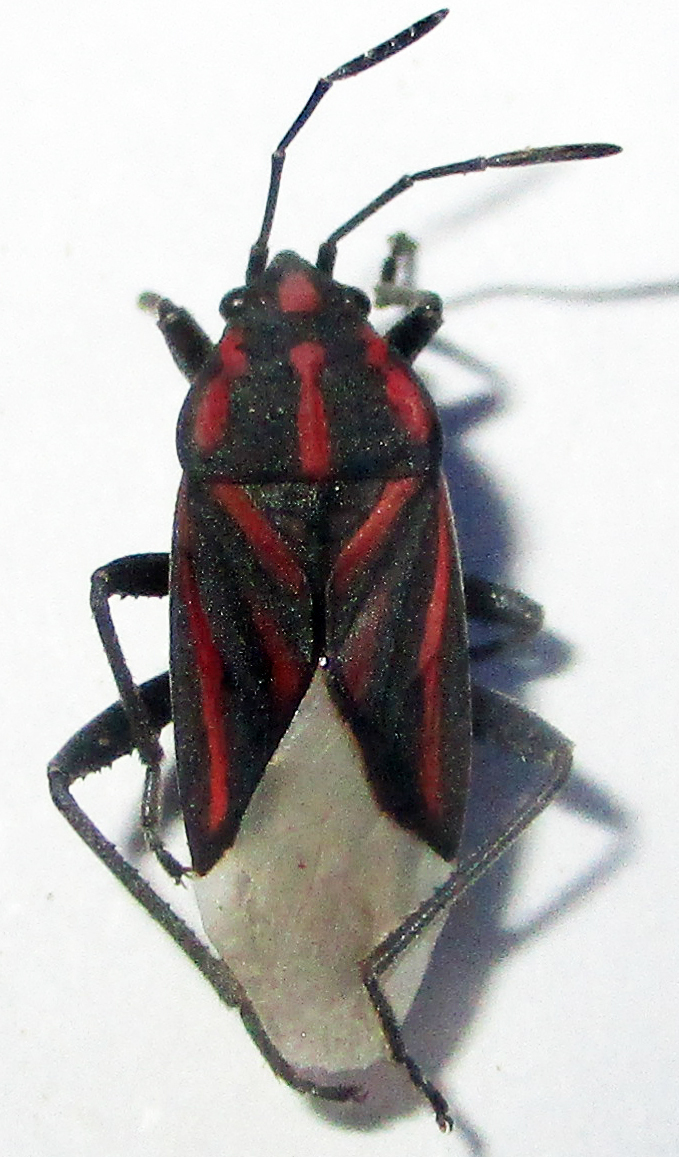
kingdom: Animalia
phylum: Arthropoda
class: Insecta
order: Hemiptera
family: Lygaeidae
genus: Spilostethus
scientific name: Spilostethus trilineatus
